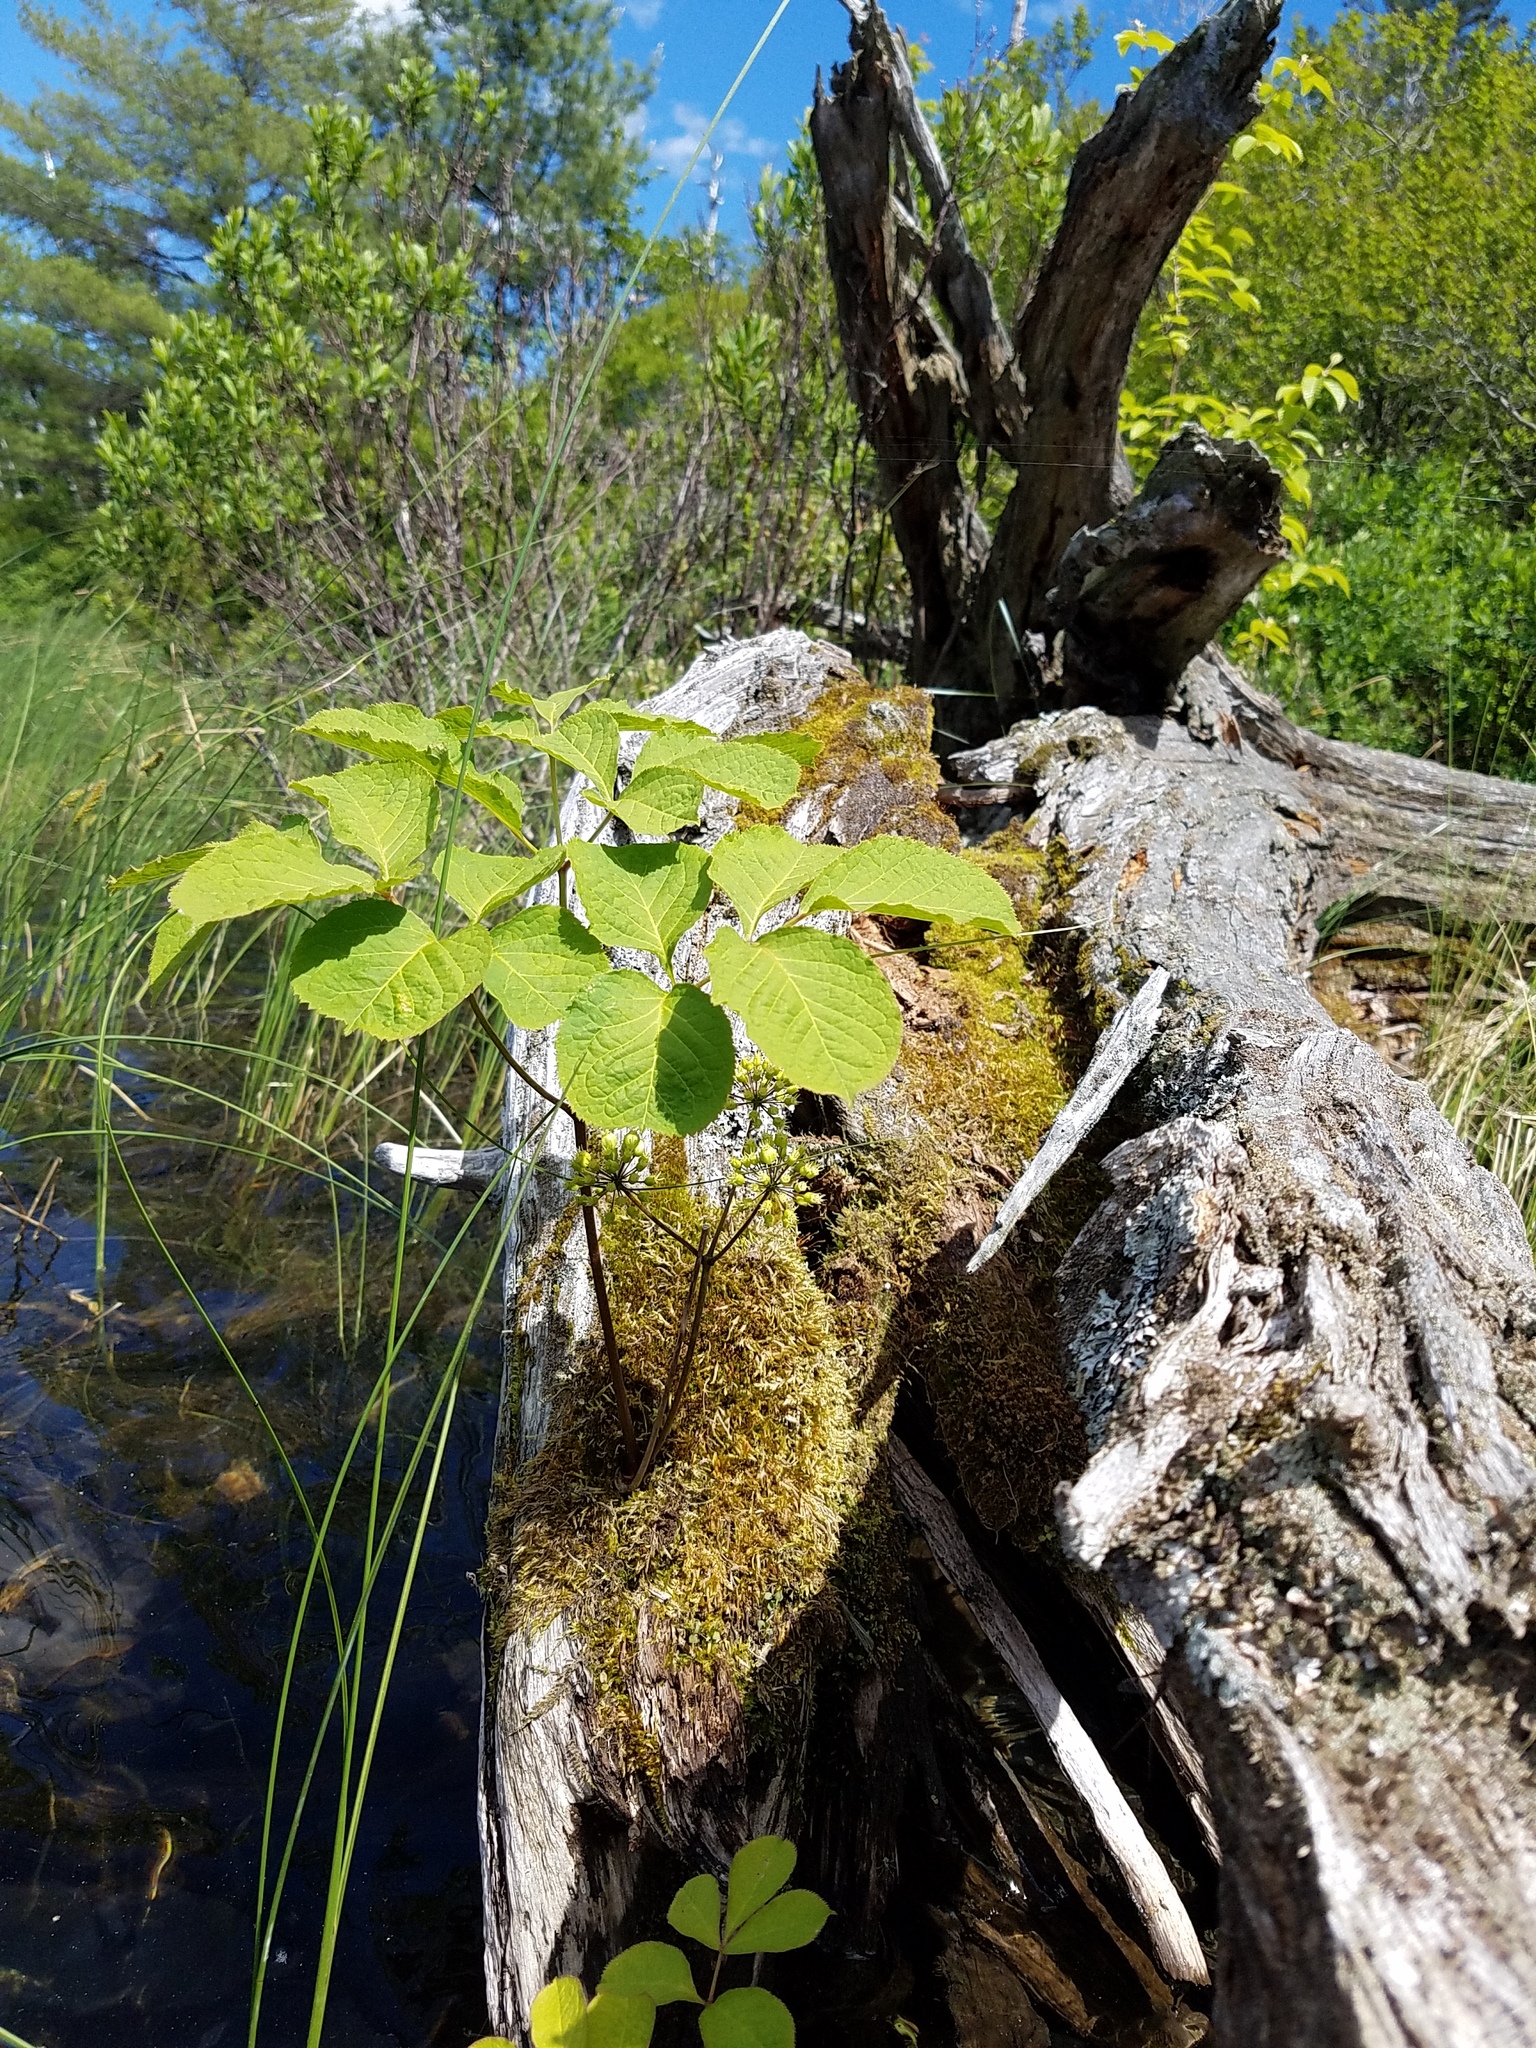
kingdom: Plantae
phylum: Tracheophyta
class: Magnoliopsida
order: Apiales
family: Araliaceae
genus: Aralia
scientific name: Aralia nudicaulis
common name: Wild sarsaparilla
